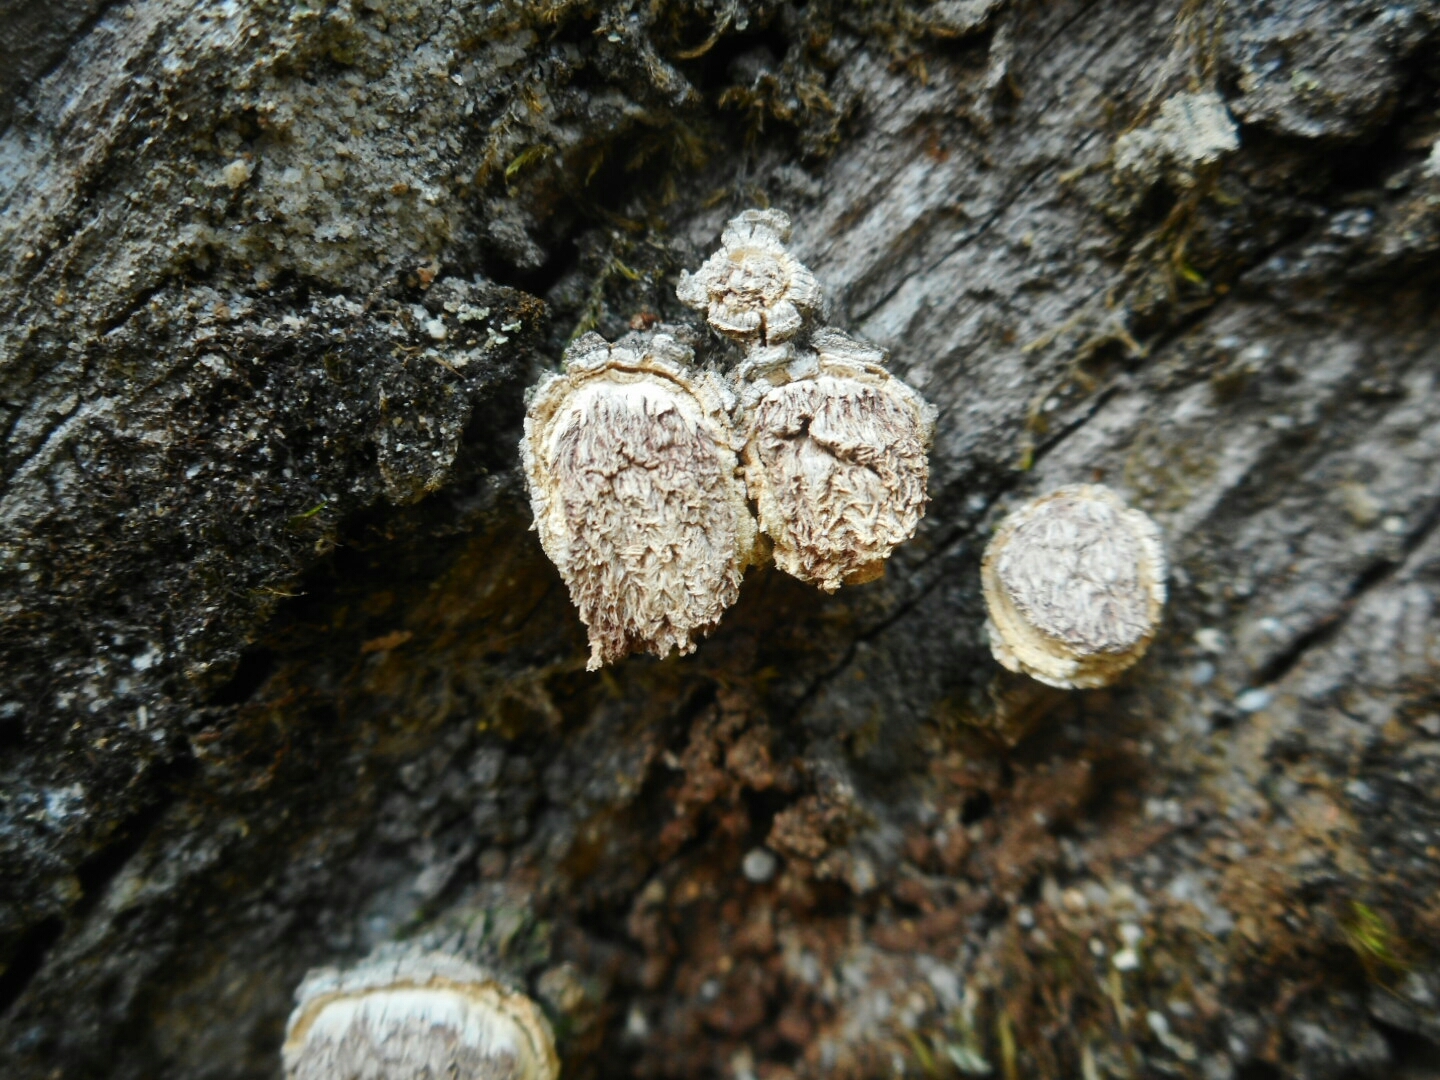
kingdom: Fungi
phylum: Ascomycota
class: Eurotiomycetes
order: Eurotiales
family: Trichocomaceae
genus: Trichocoma
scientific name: Trichocoma paradoxa
